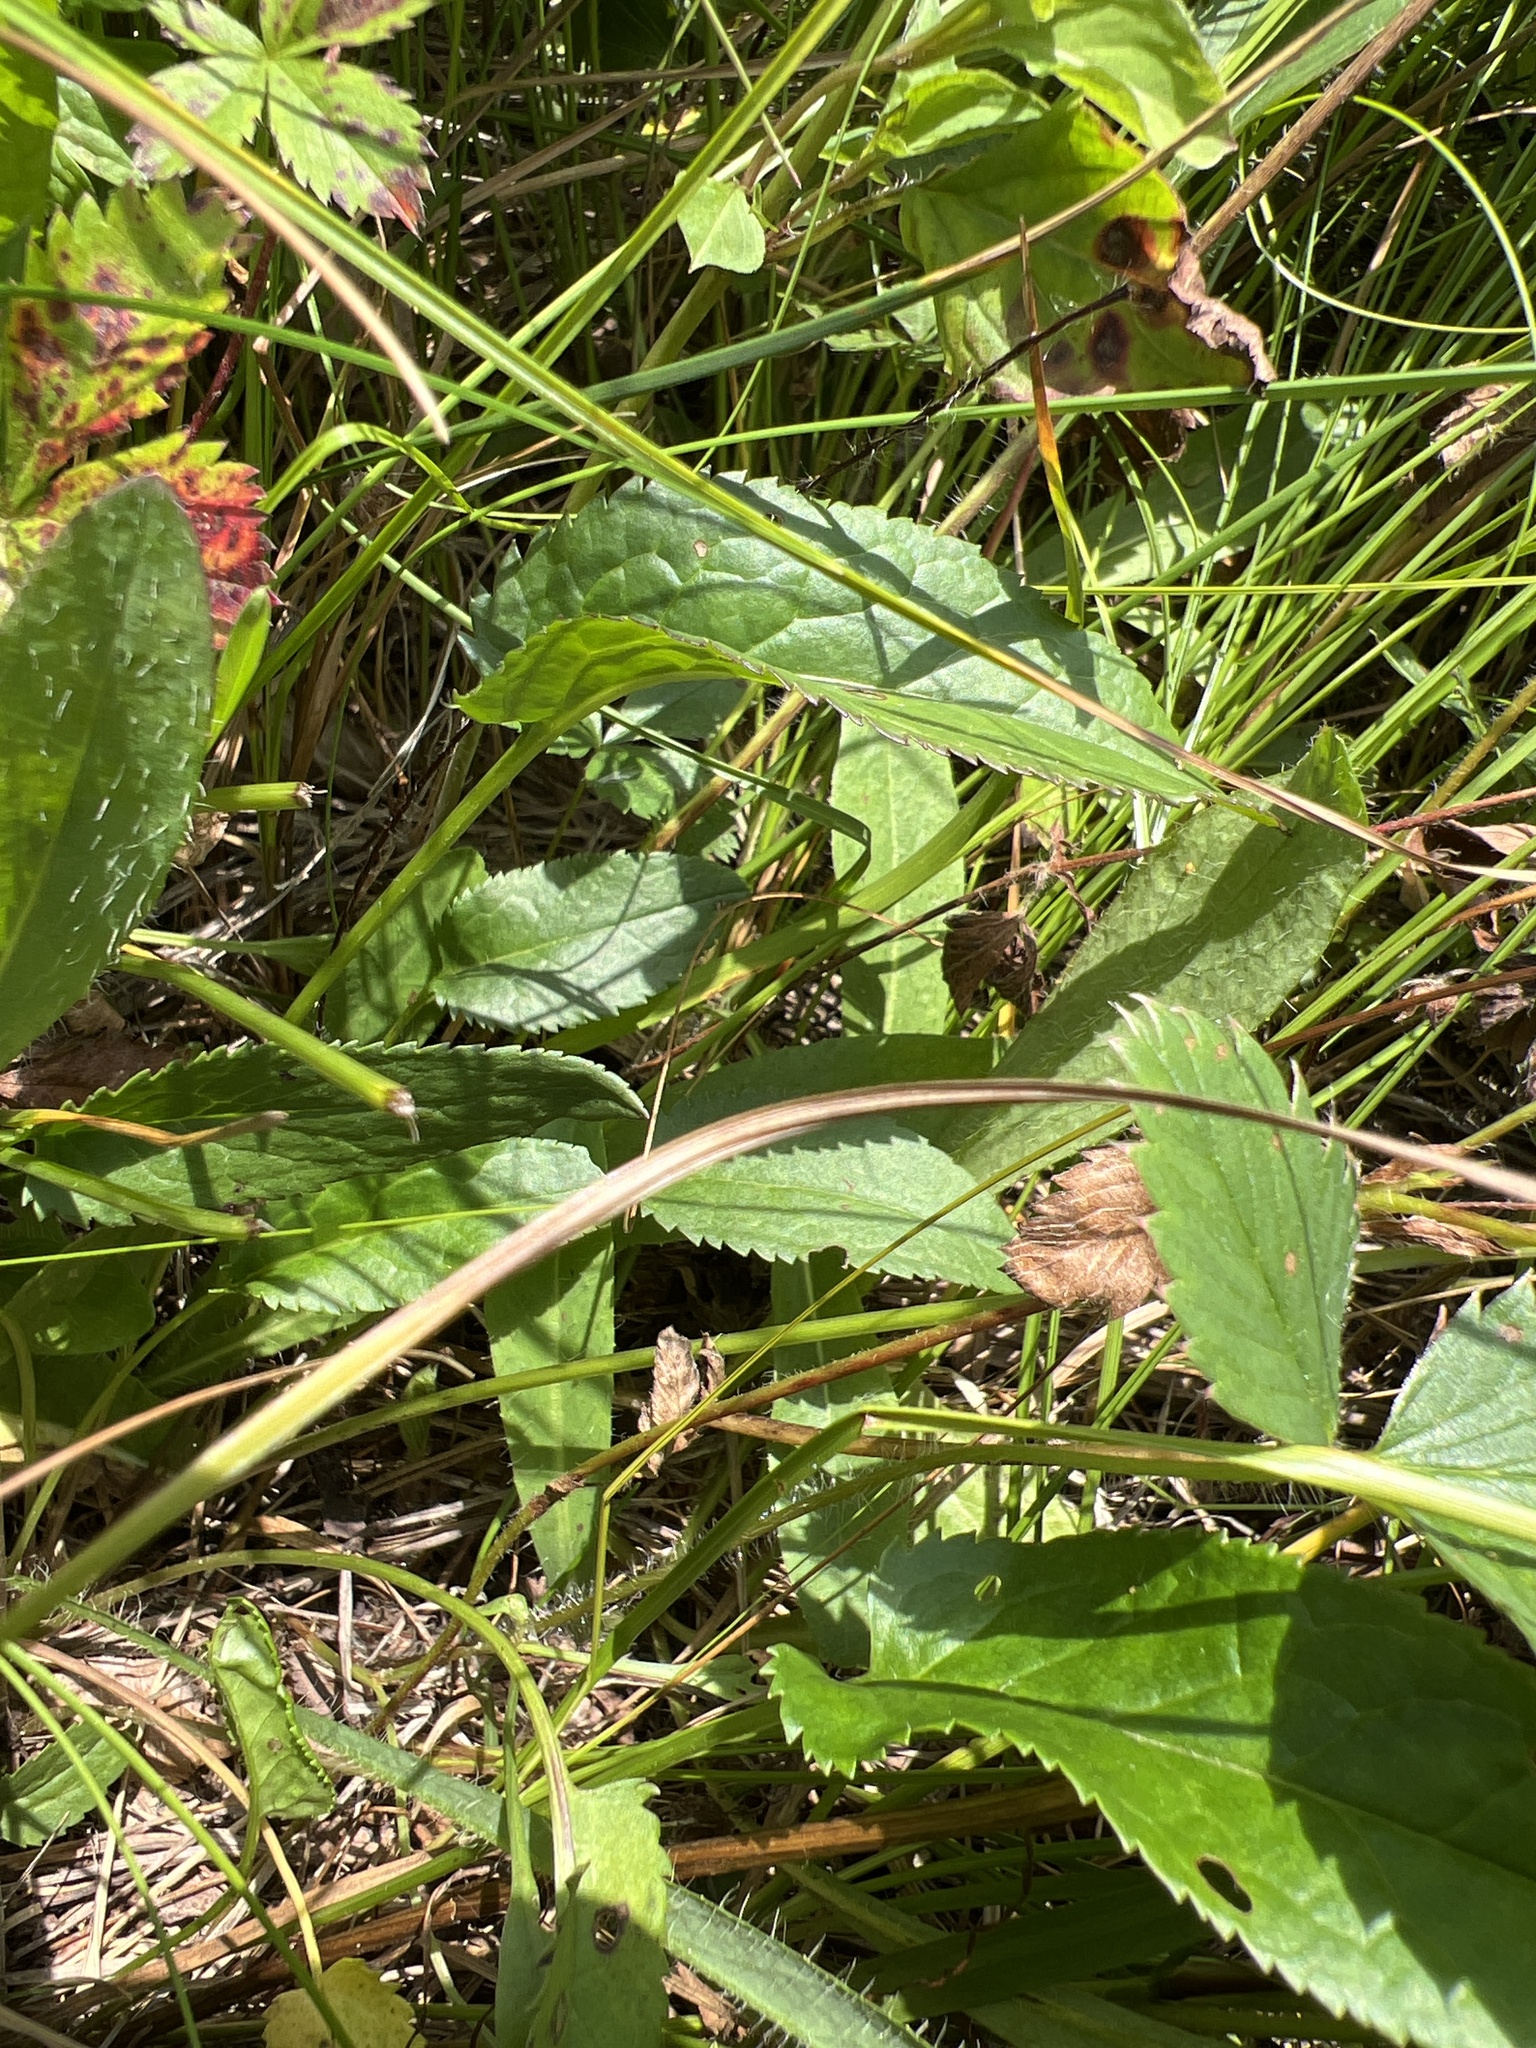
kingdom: Plantae
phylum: Tracheophyta
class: Magnoliopsida
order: Asterales
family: Asteraceae
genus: Packera
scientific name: Packera schweinitziana
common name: Schweinitz's ragwort
